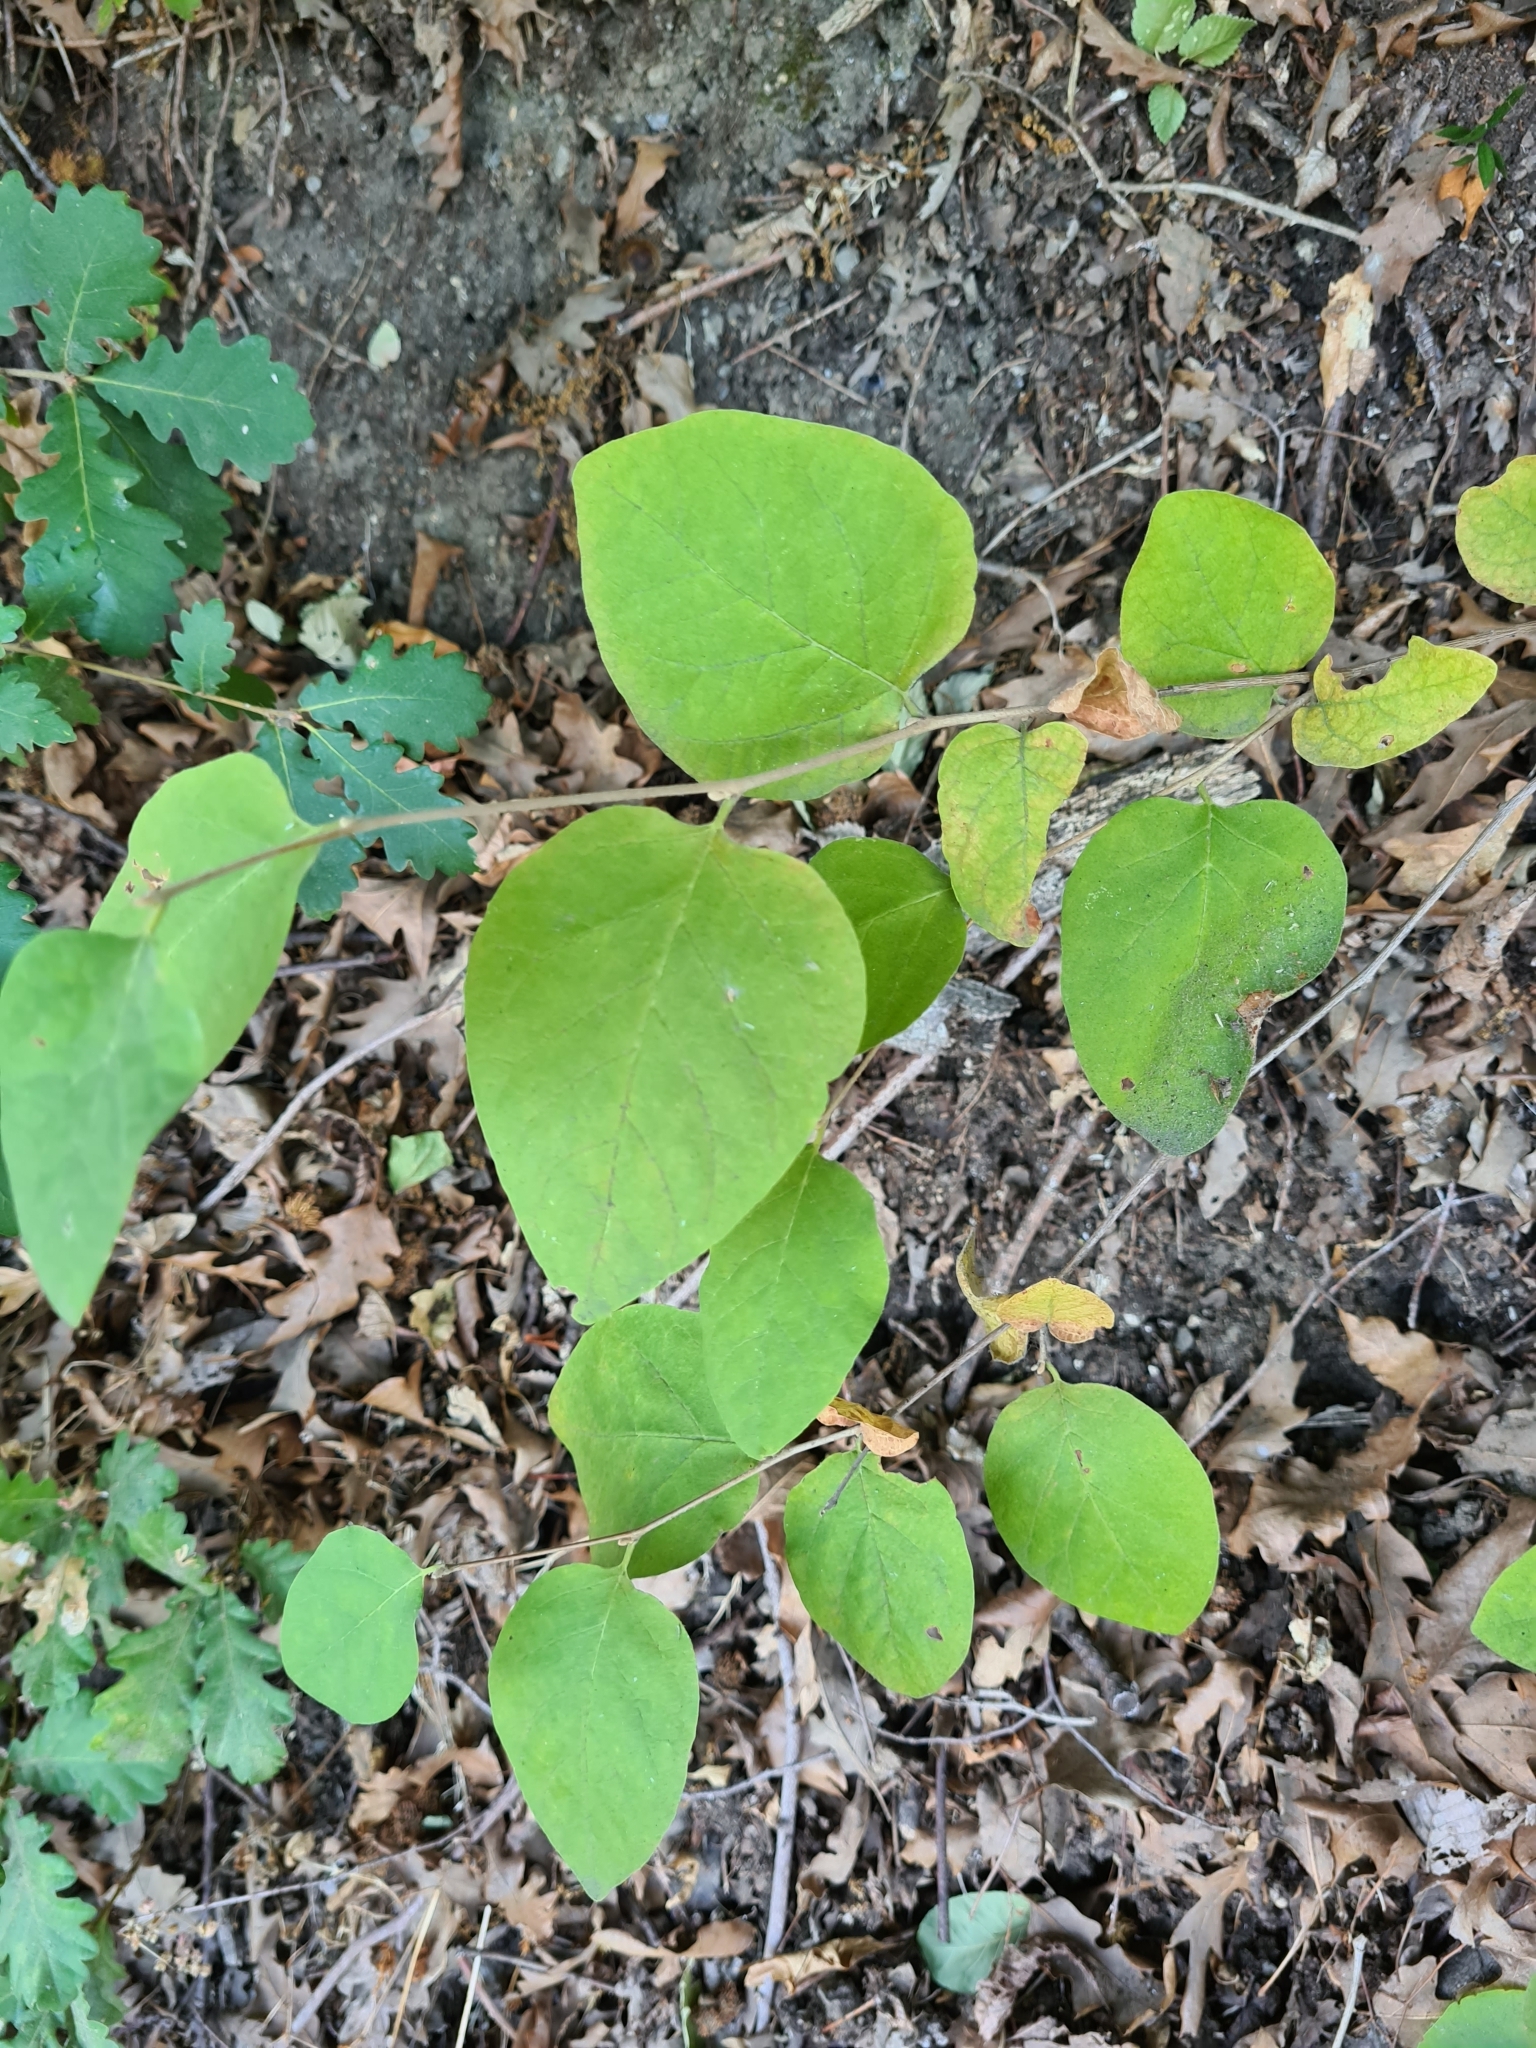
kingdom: Plantae
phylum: Tracheophyta
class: Magnoliopsida
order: Ericales
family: Styracaceae
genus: Styrax
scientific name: Styrax officinalis
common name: Storax
